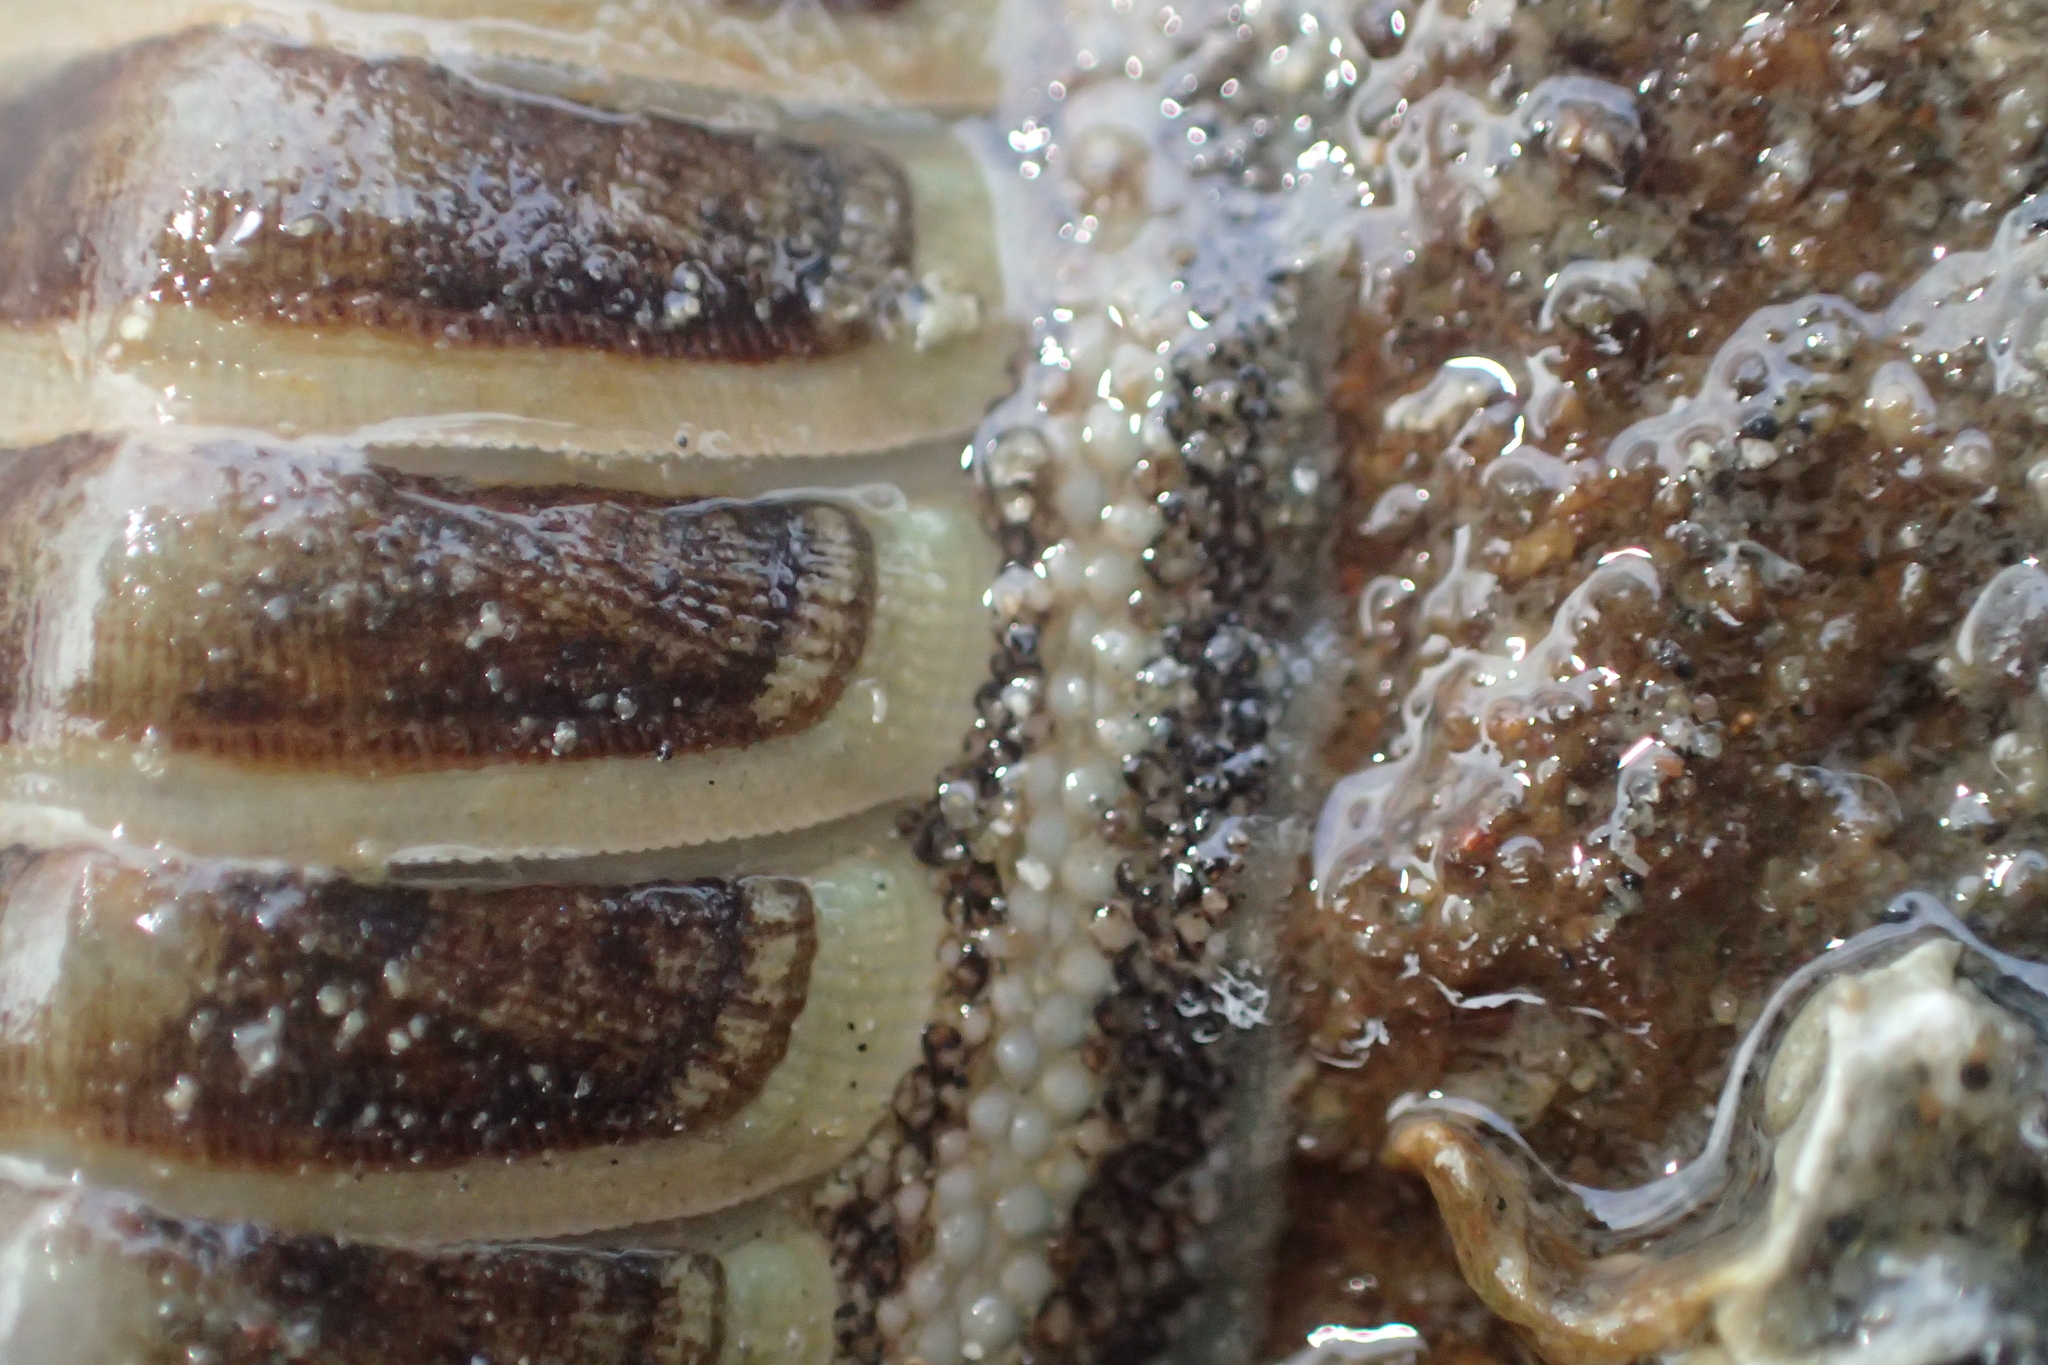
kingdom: Animalia
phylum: Mollusca
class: Polyplacophora
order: Chitonida
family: Chitonidae
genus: Chiton
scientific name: Chiton glaucus
